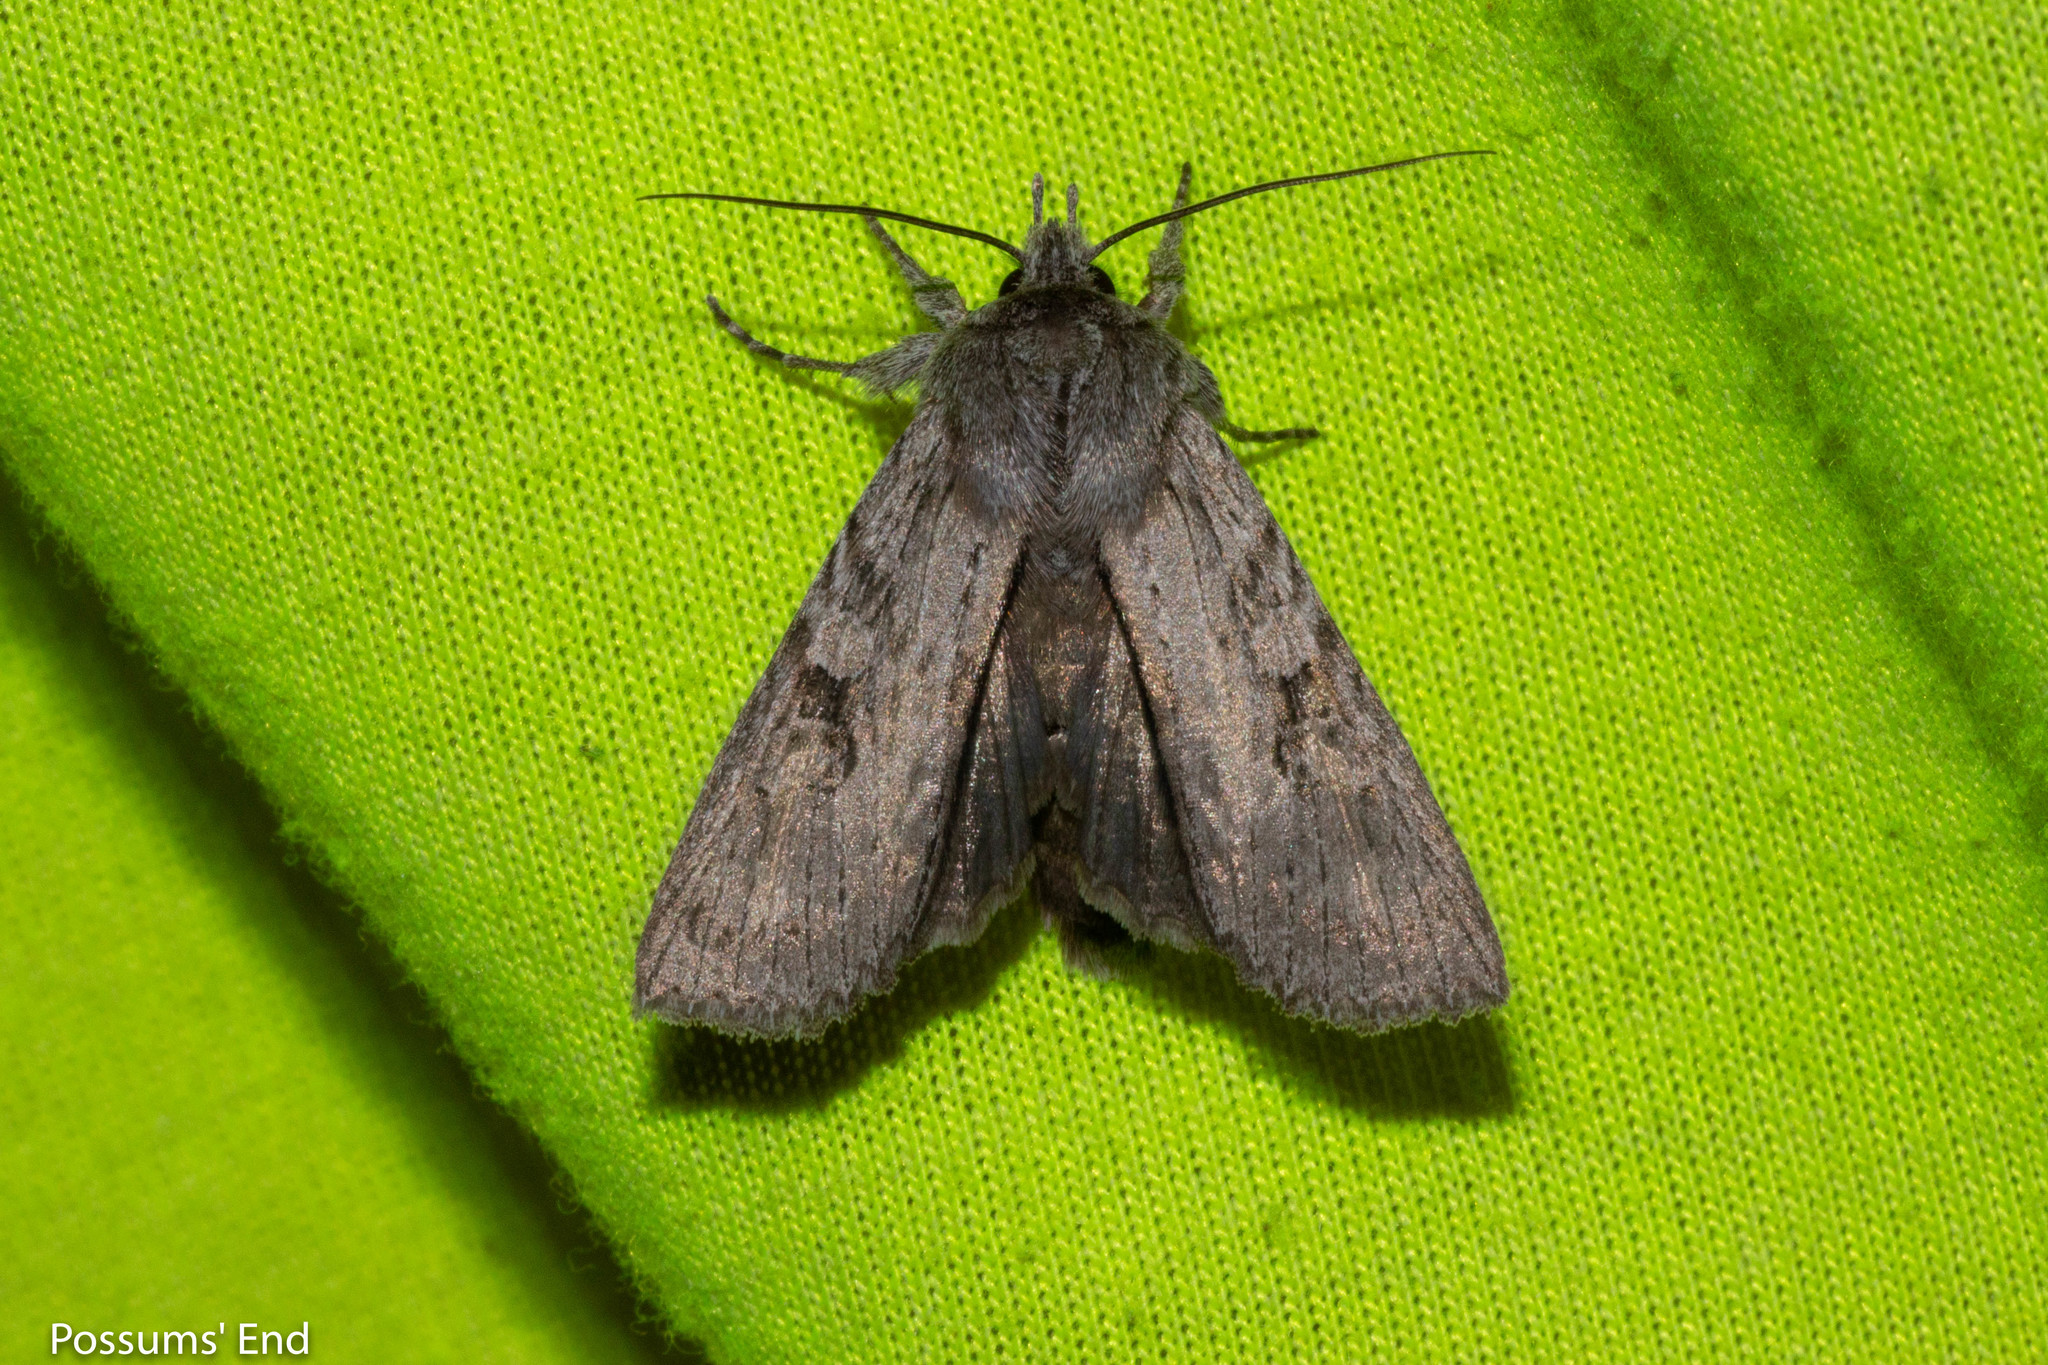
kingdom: Animalia
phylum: Arthropoda
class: Insecta
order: Lepidoptera
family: Noctuidae
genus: Physetica
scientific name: Physetica phricias
